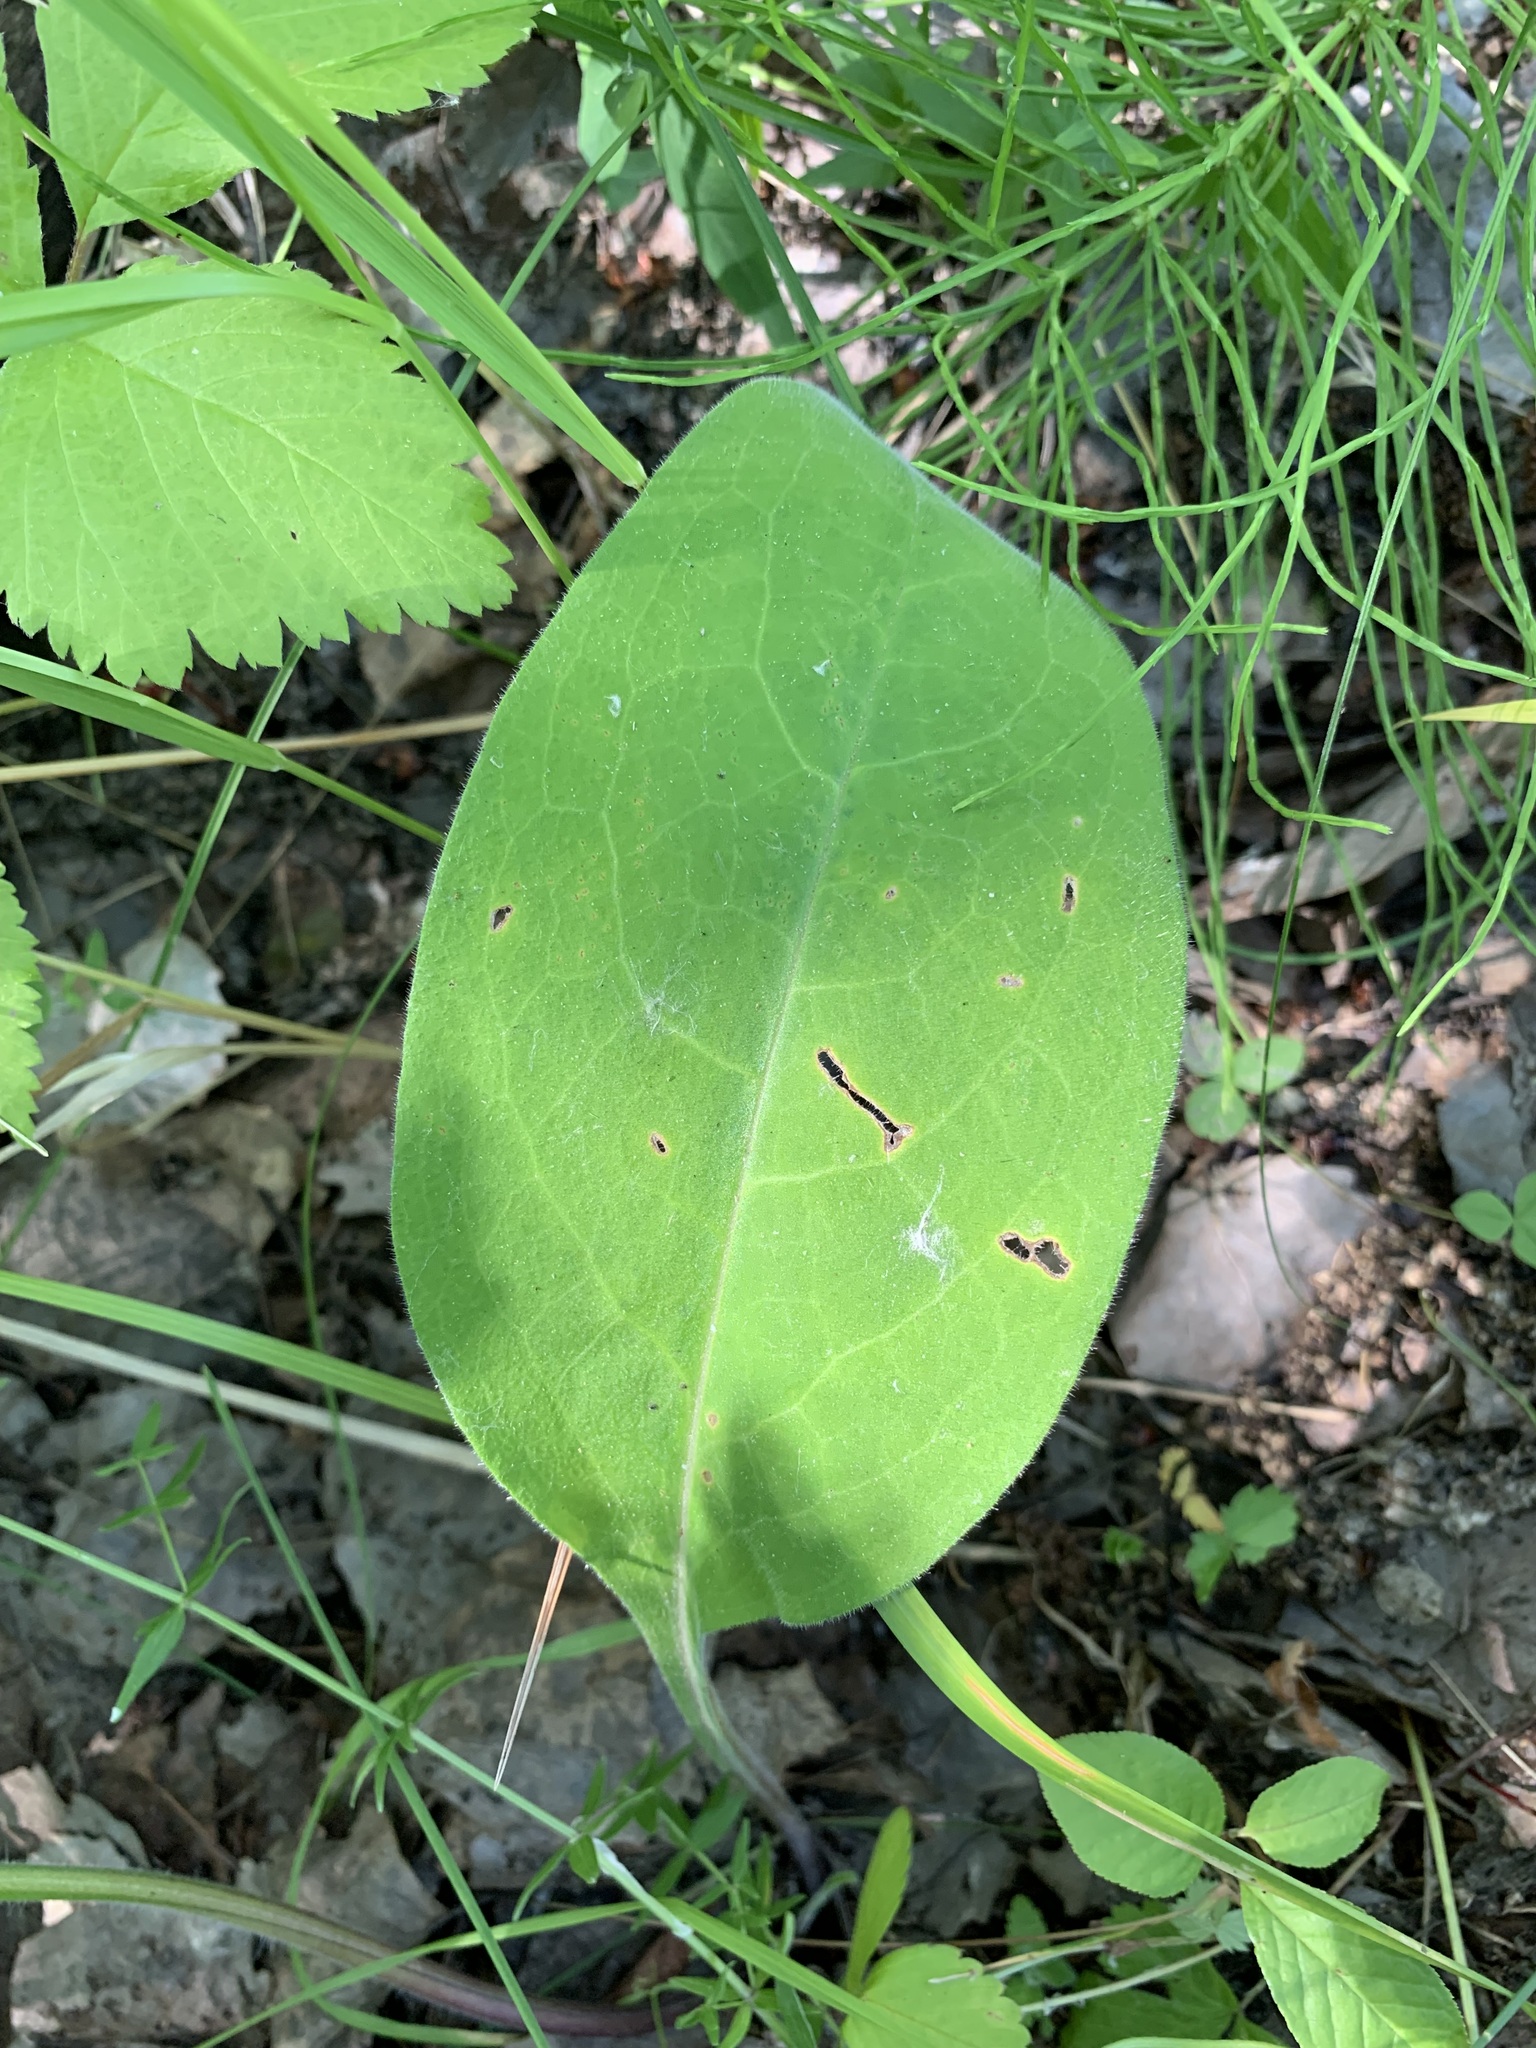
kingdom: Plantae
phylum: Tracheophyta
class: Magnoliopsida
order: Boraginales
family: Boraginaceae
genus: Pulmonaria
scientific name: Pulmonaria mollis
